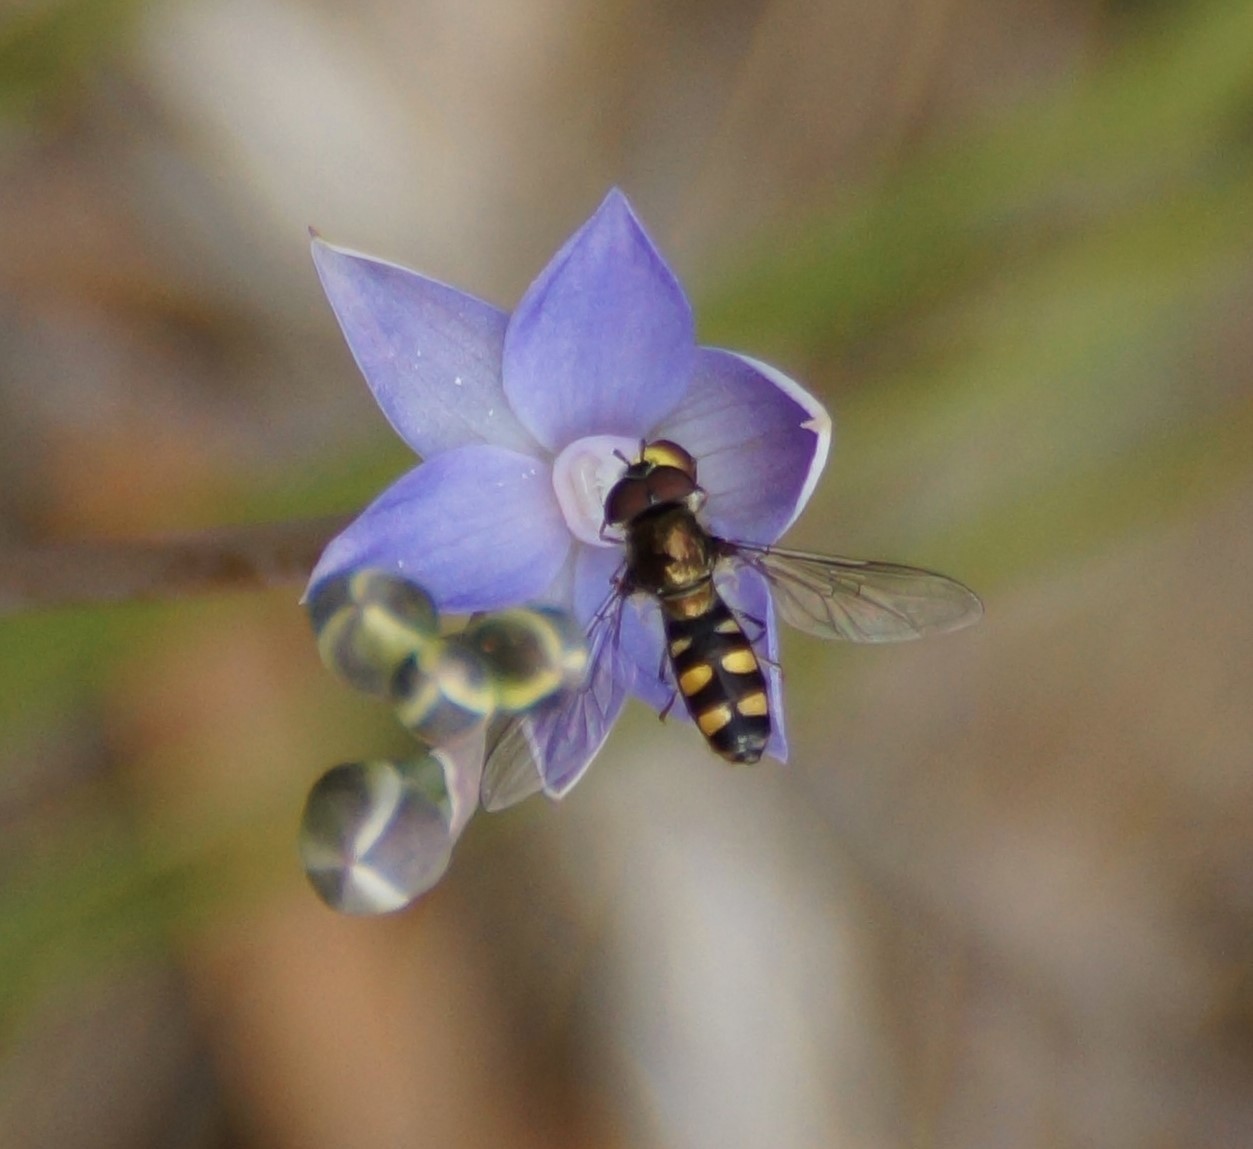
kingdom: Animalia
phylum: Arthropoda
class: Insecta
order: Diptera
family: Syrphidae
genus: Melangyna
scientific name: Melangyna viridiceps
